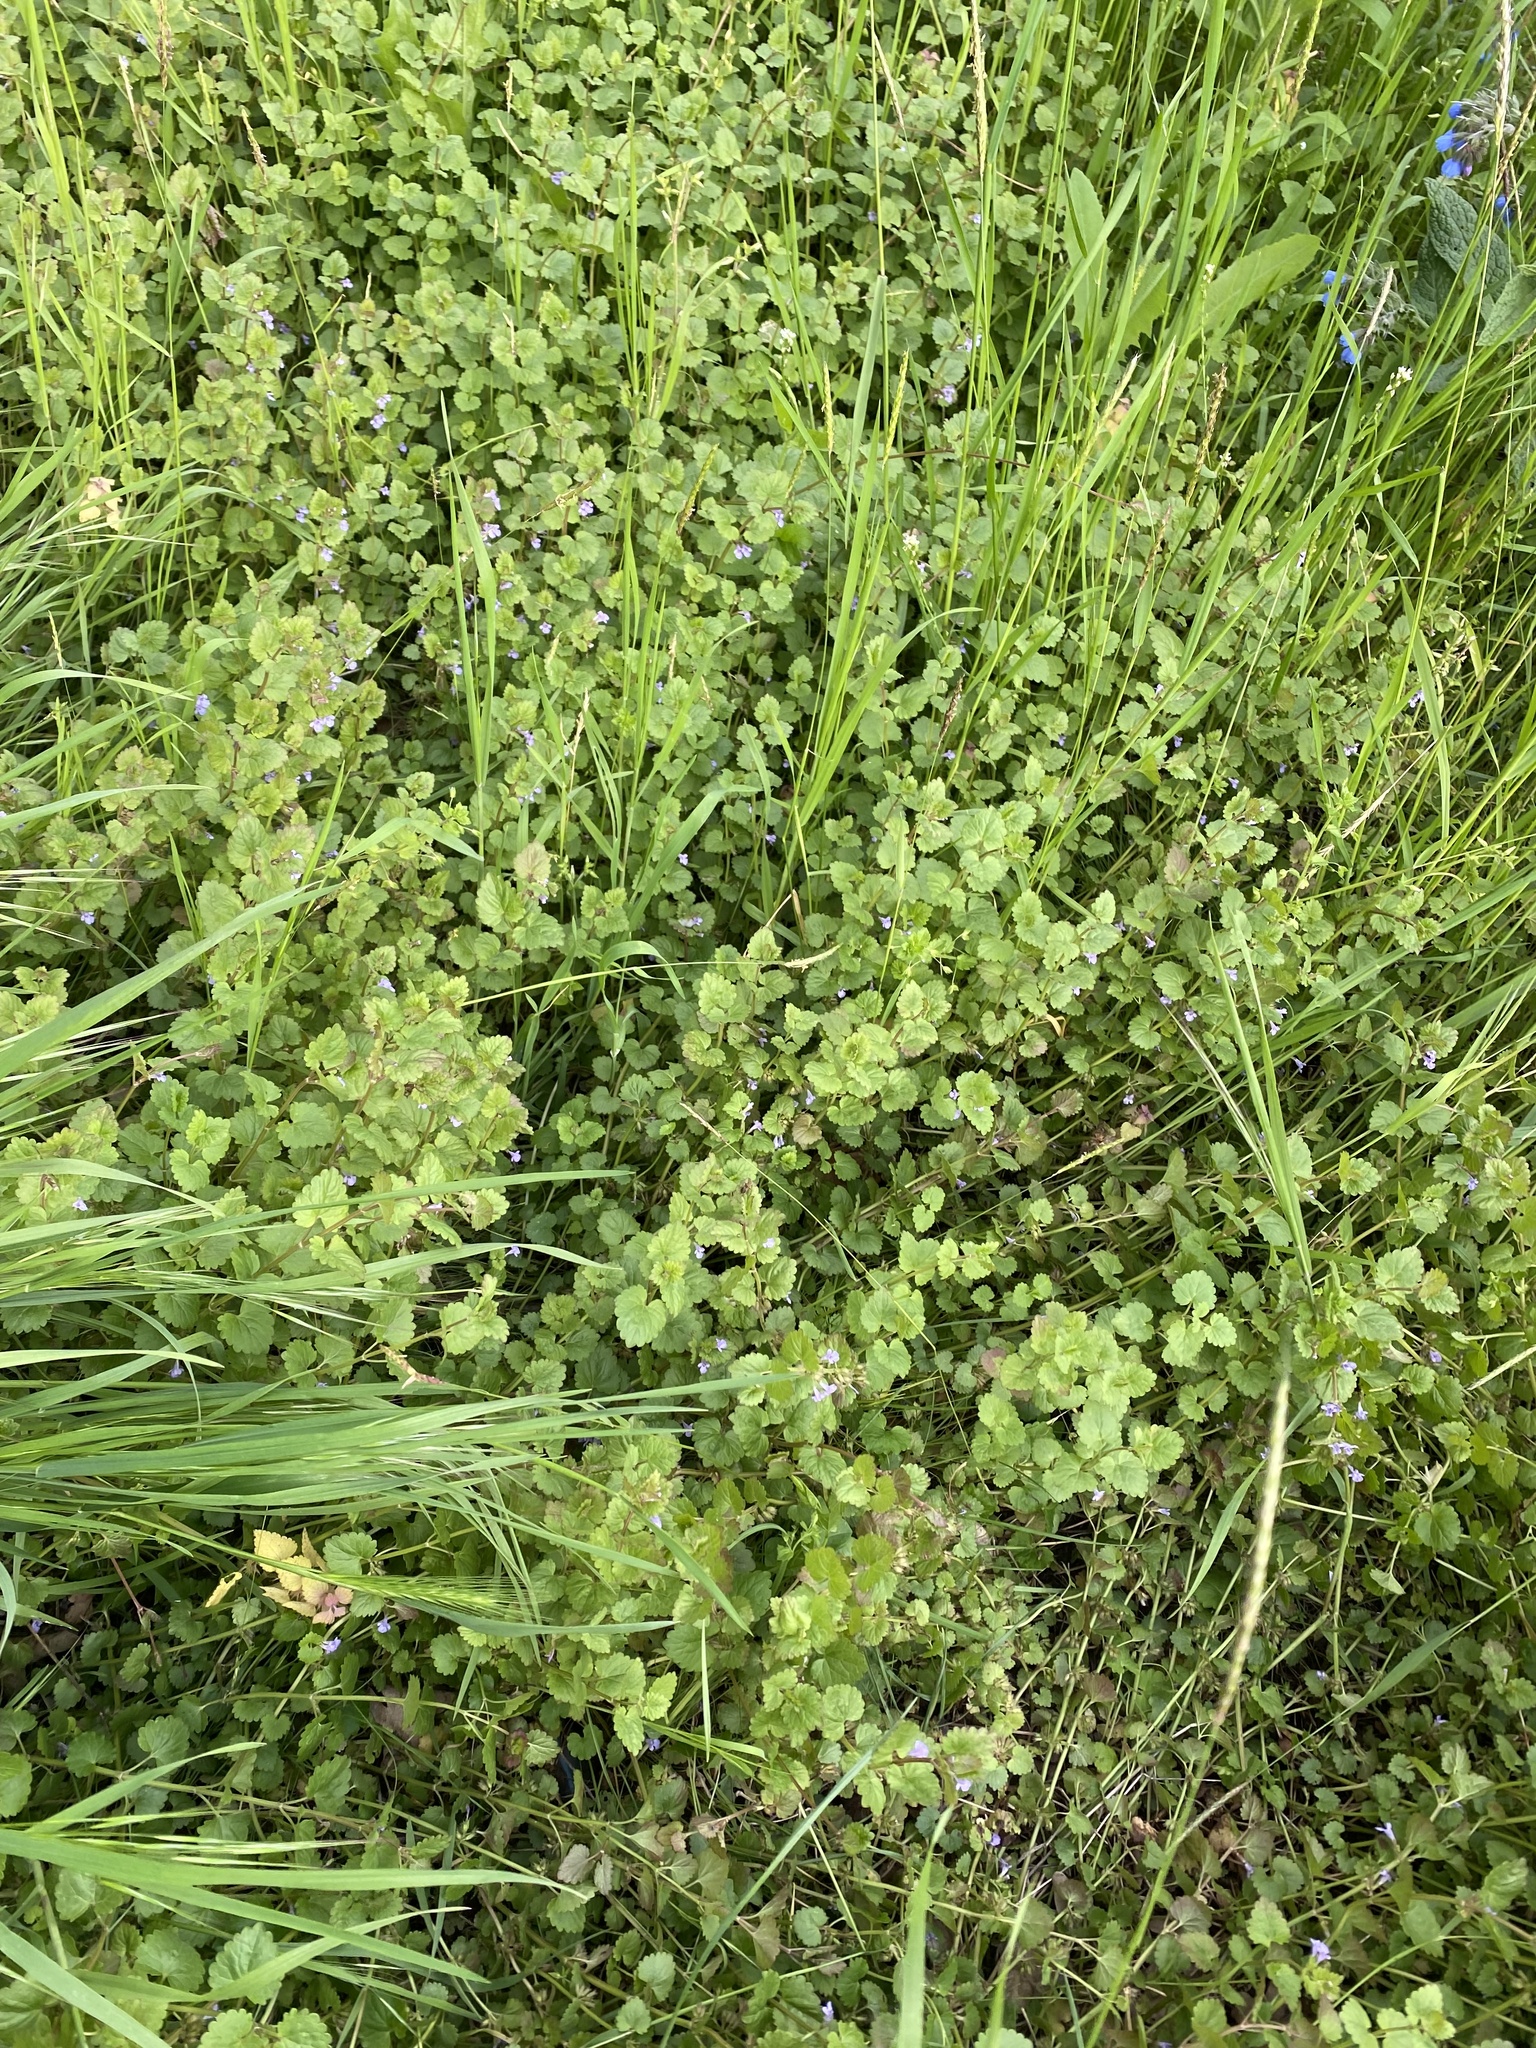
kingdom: Plantae
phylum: Tracheophyta
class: Magnoliopsida
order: Lamiales
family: Lamiaceae
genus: Glechoma
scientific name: Glechoma hederacea
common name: Ground ivy
